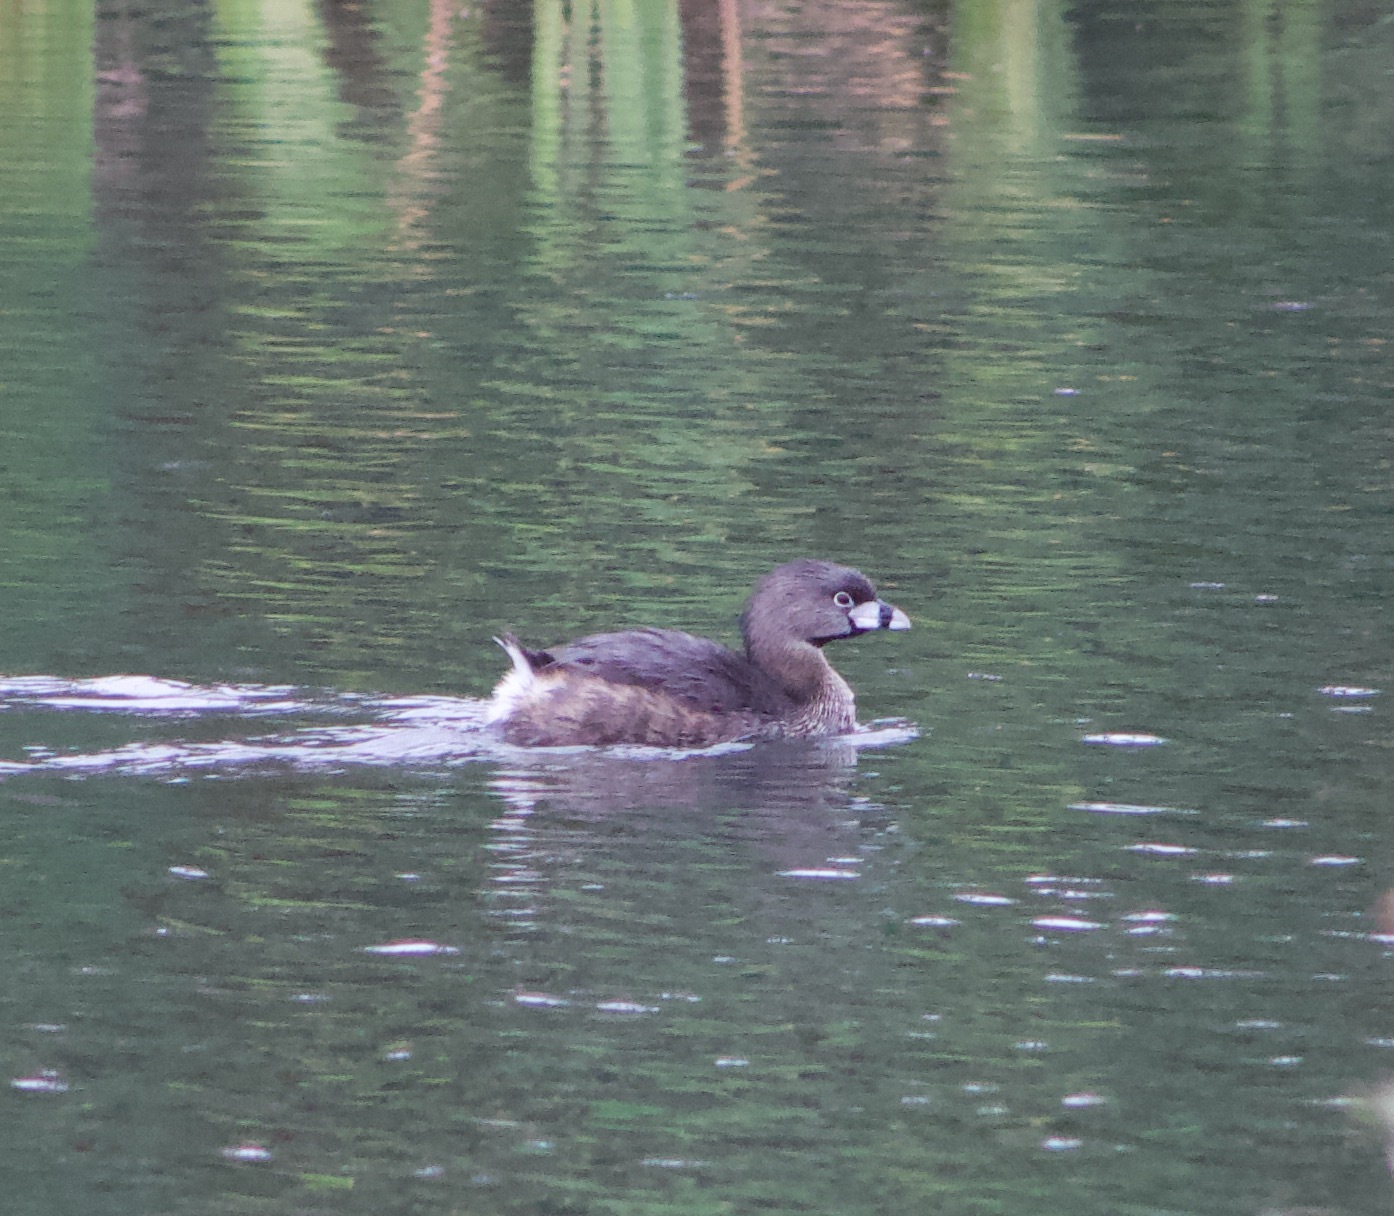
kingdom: Animalia
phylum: Chordata
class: Aves
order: Podicipediformes
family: Podicipedidae
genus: Podilymbus
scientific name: Podilymbus podiceps
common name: Pied-billed grebe
